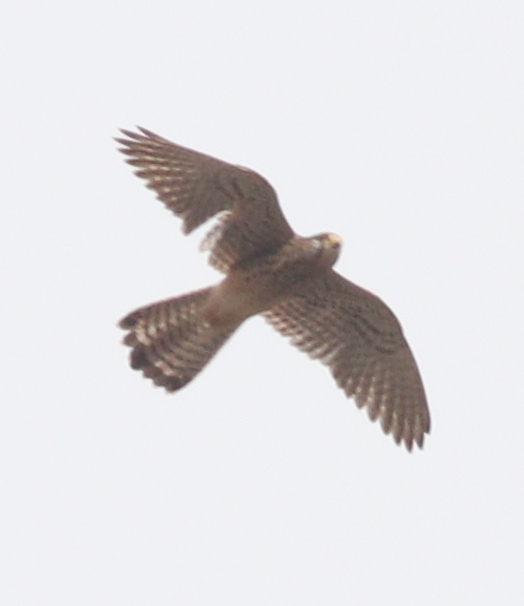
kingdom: Animalia
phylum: Chordata
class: Aves
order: Falconiformes
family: Falconidae
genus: Falco
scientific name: Falco tinnunculus
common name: Common kestrel
